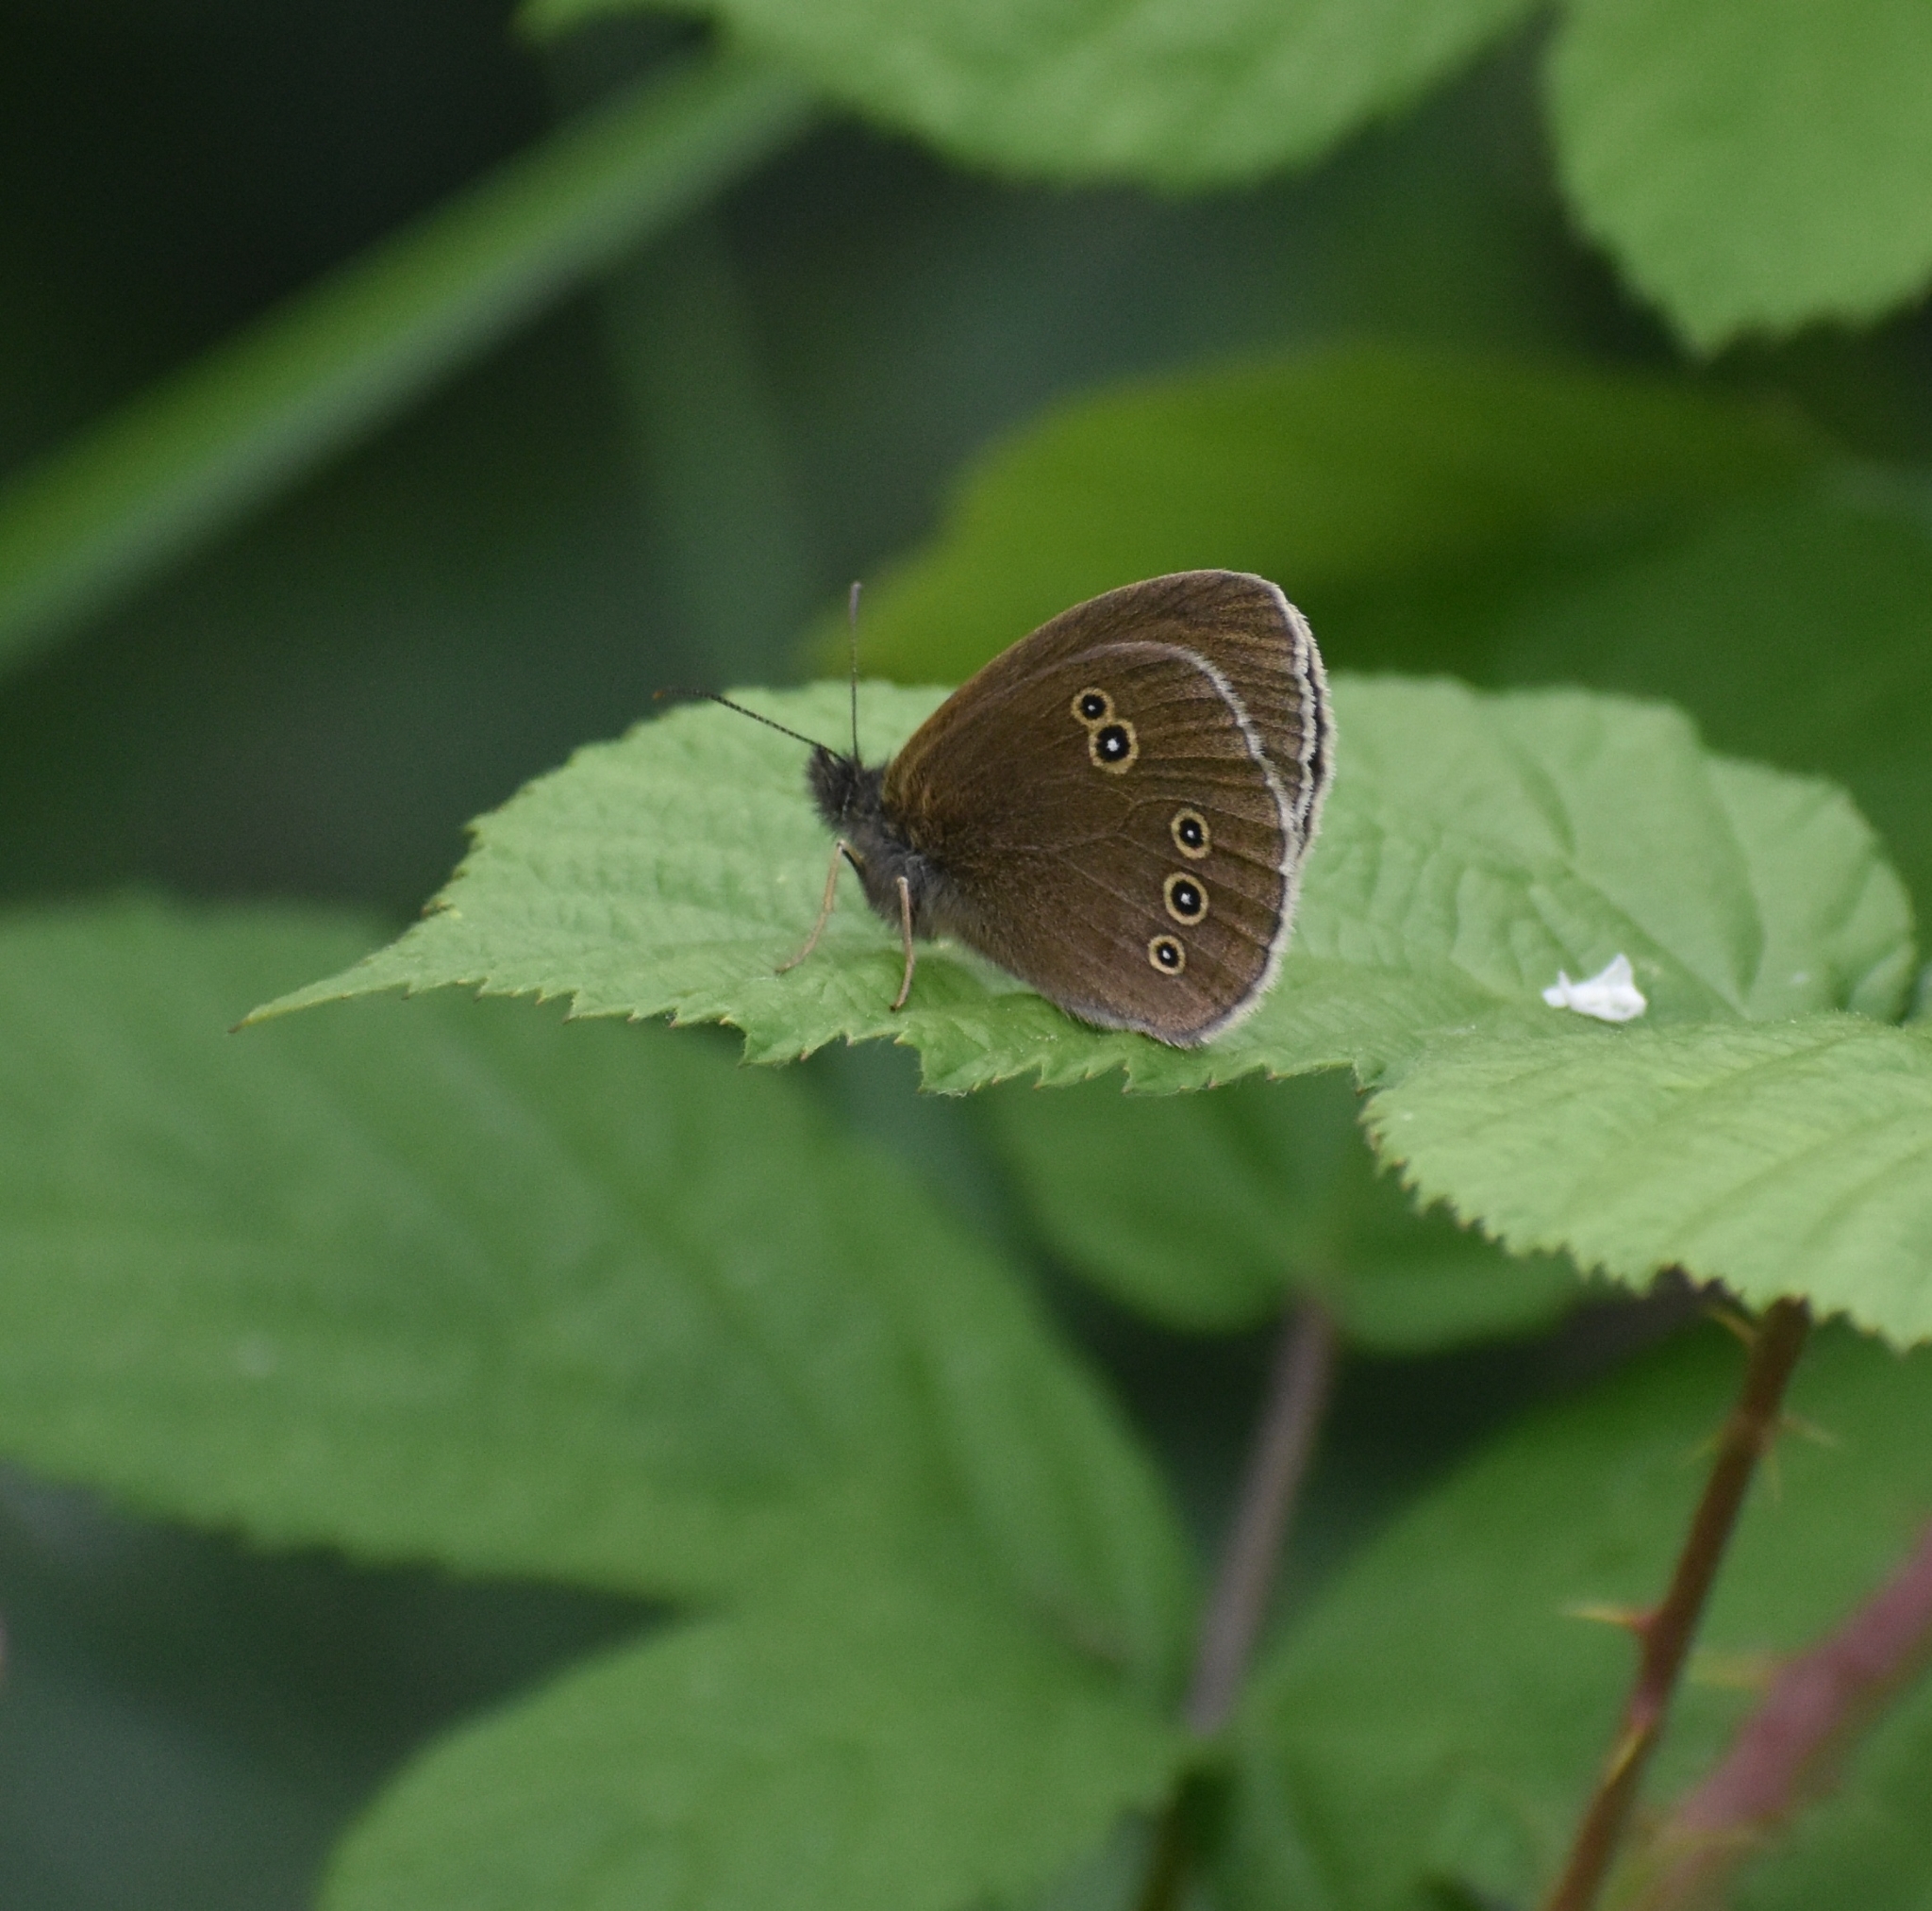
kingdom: Animalia
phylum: Arthropoda
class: Insecta
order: Lepidoptera
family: Nymphalidae
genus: Aphantopus
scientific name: Aphantopus hyperantus
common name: Ringlet
